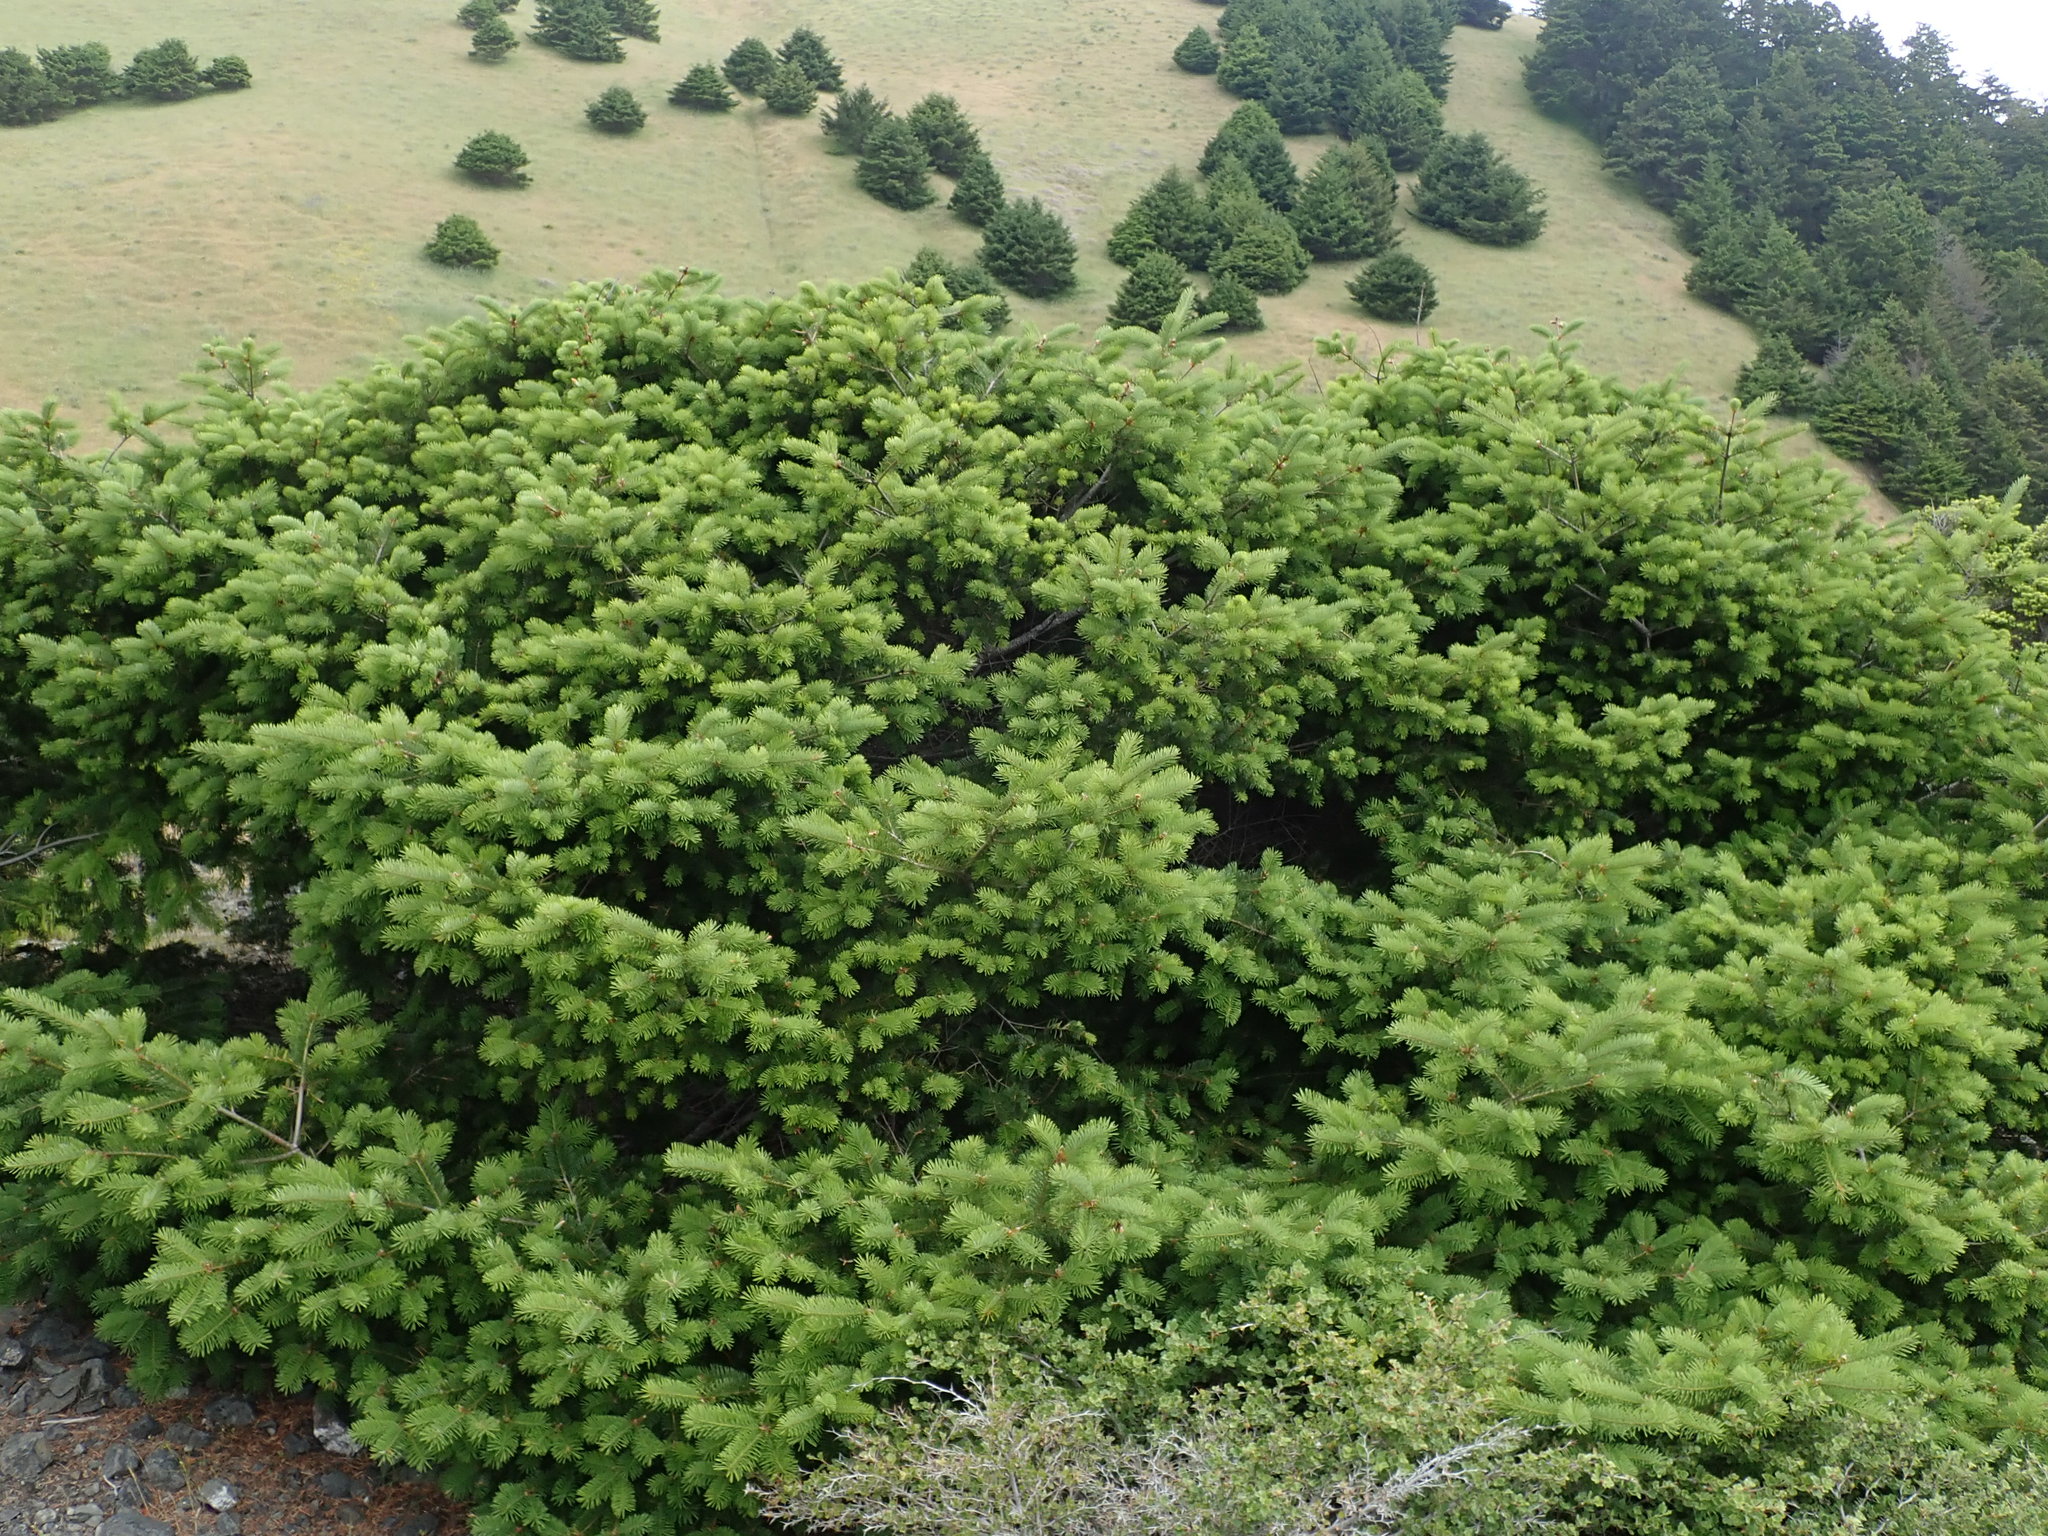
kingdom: Plantae
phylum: Tracheophyta
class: Pinopsida
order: Pinales
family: Pinaceae
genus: Pseudotsuga
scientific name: Pseudotsuga menziesii
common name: Douglas fir
